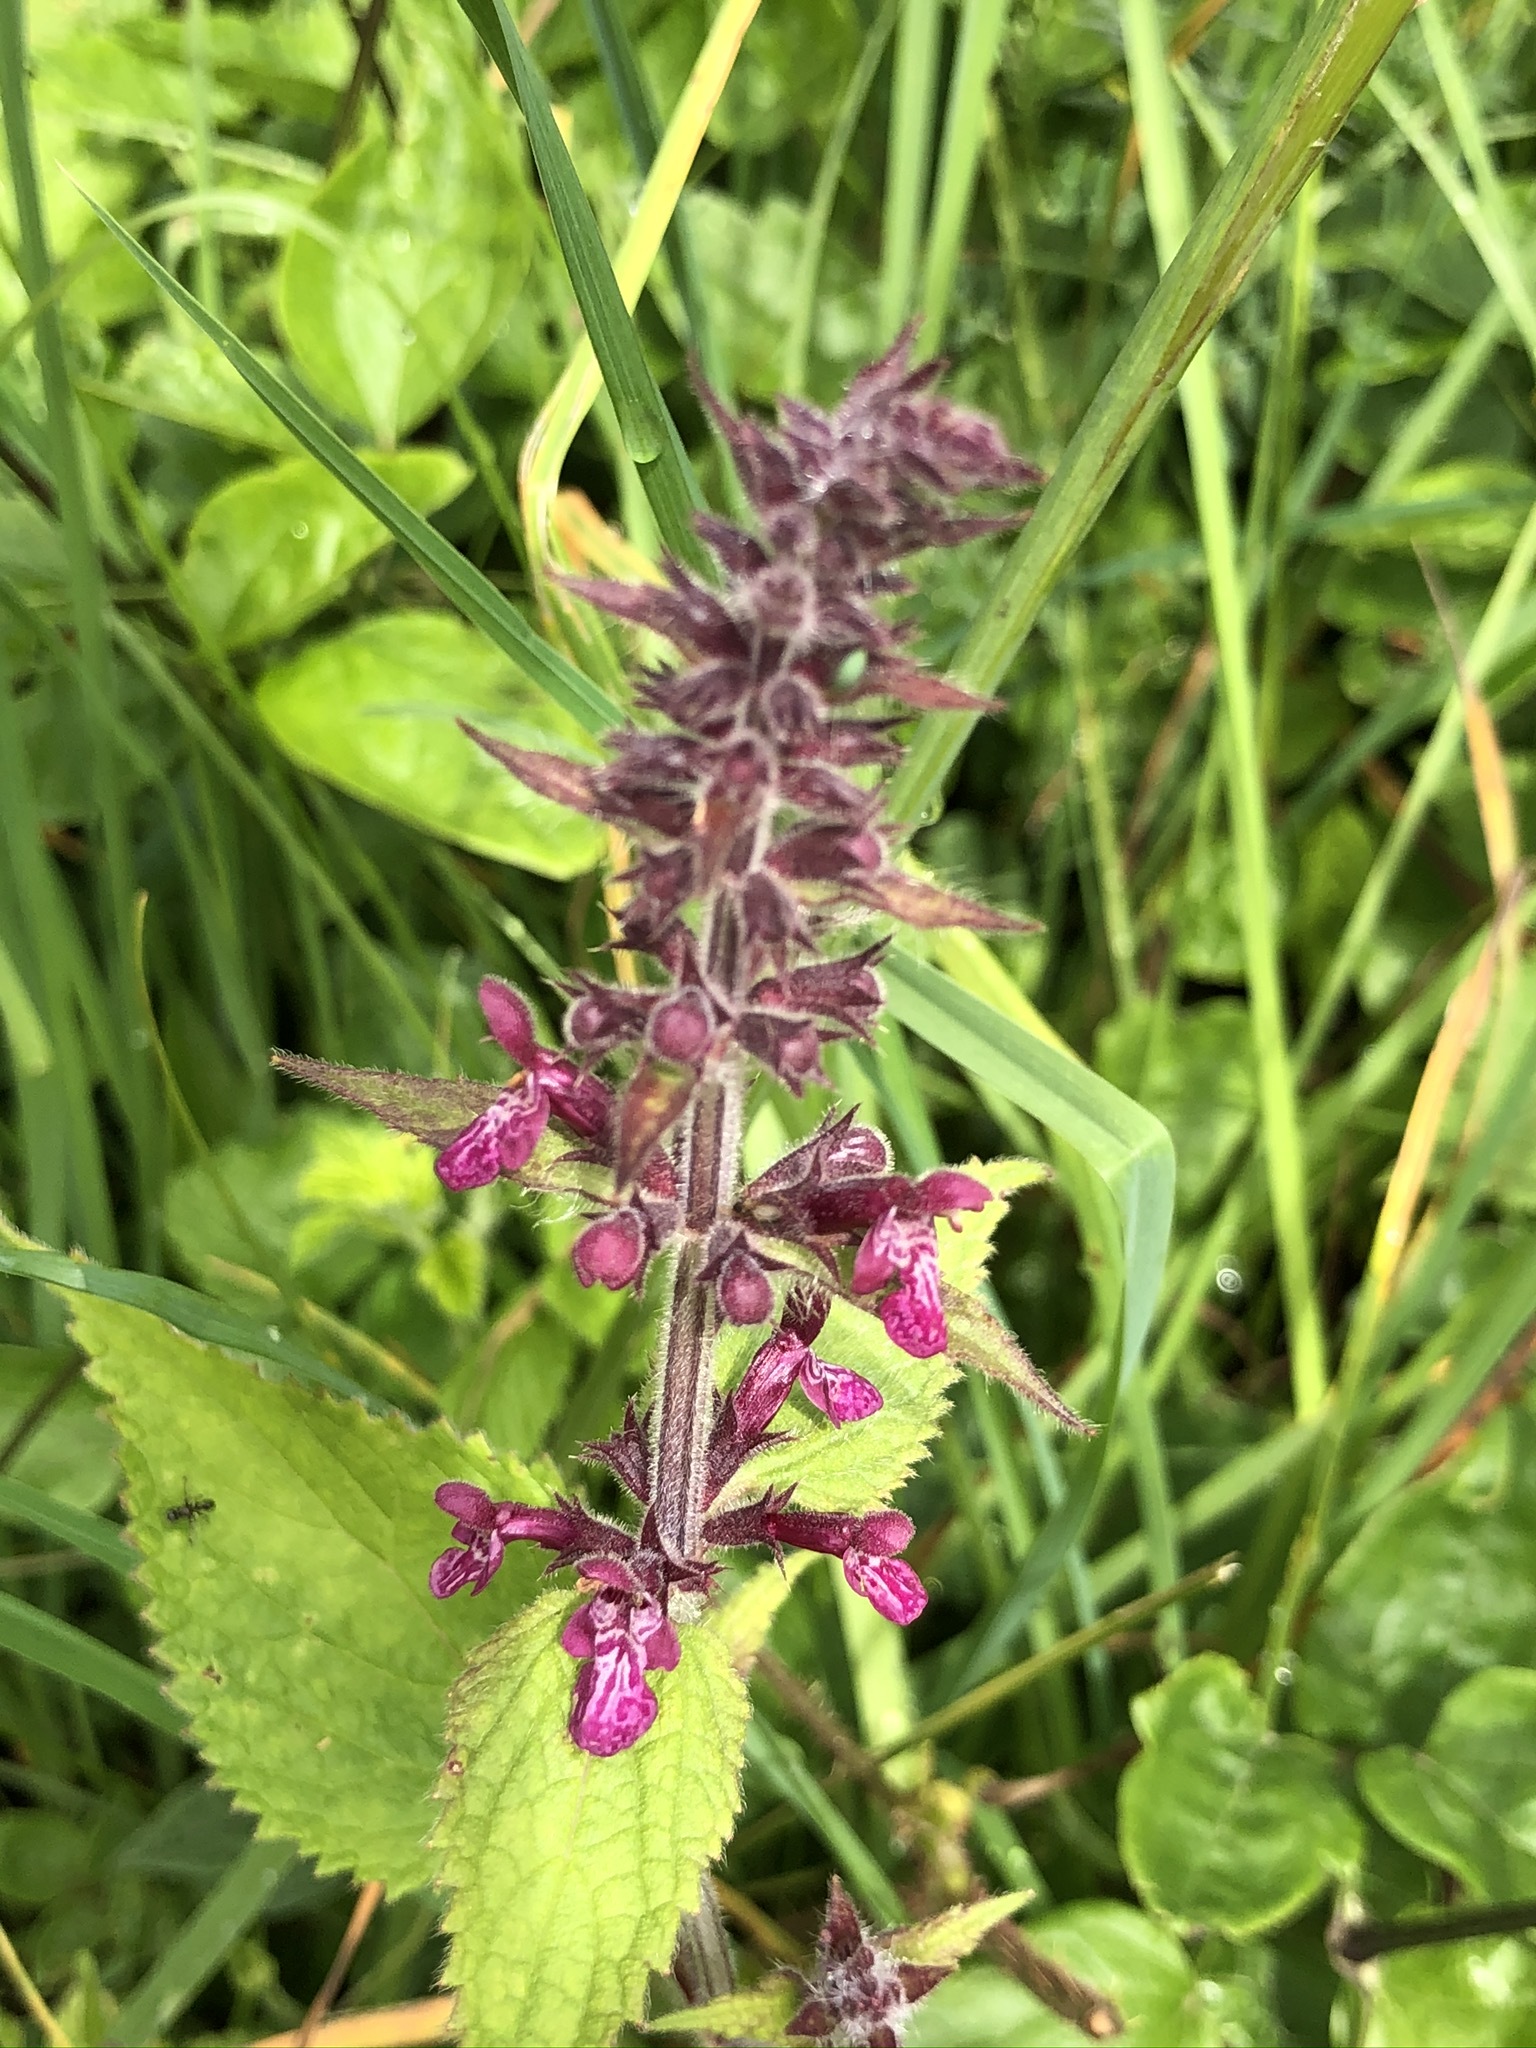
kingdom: Plantae
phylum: Tracheophyta
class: Magnoliopsida
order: Lamiales
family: Lamiaceae
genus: Stachys
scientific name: Stachys sylvatica
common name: Hedge woundwort
